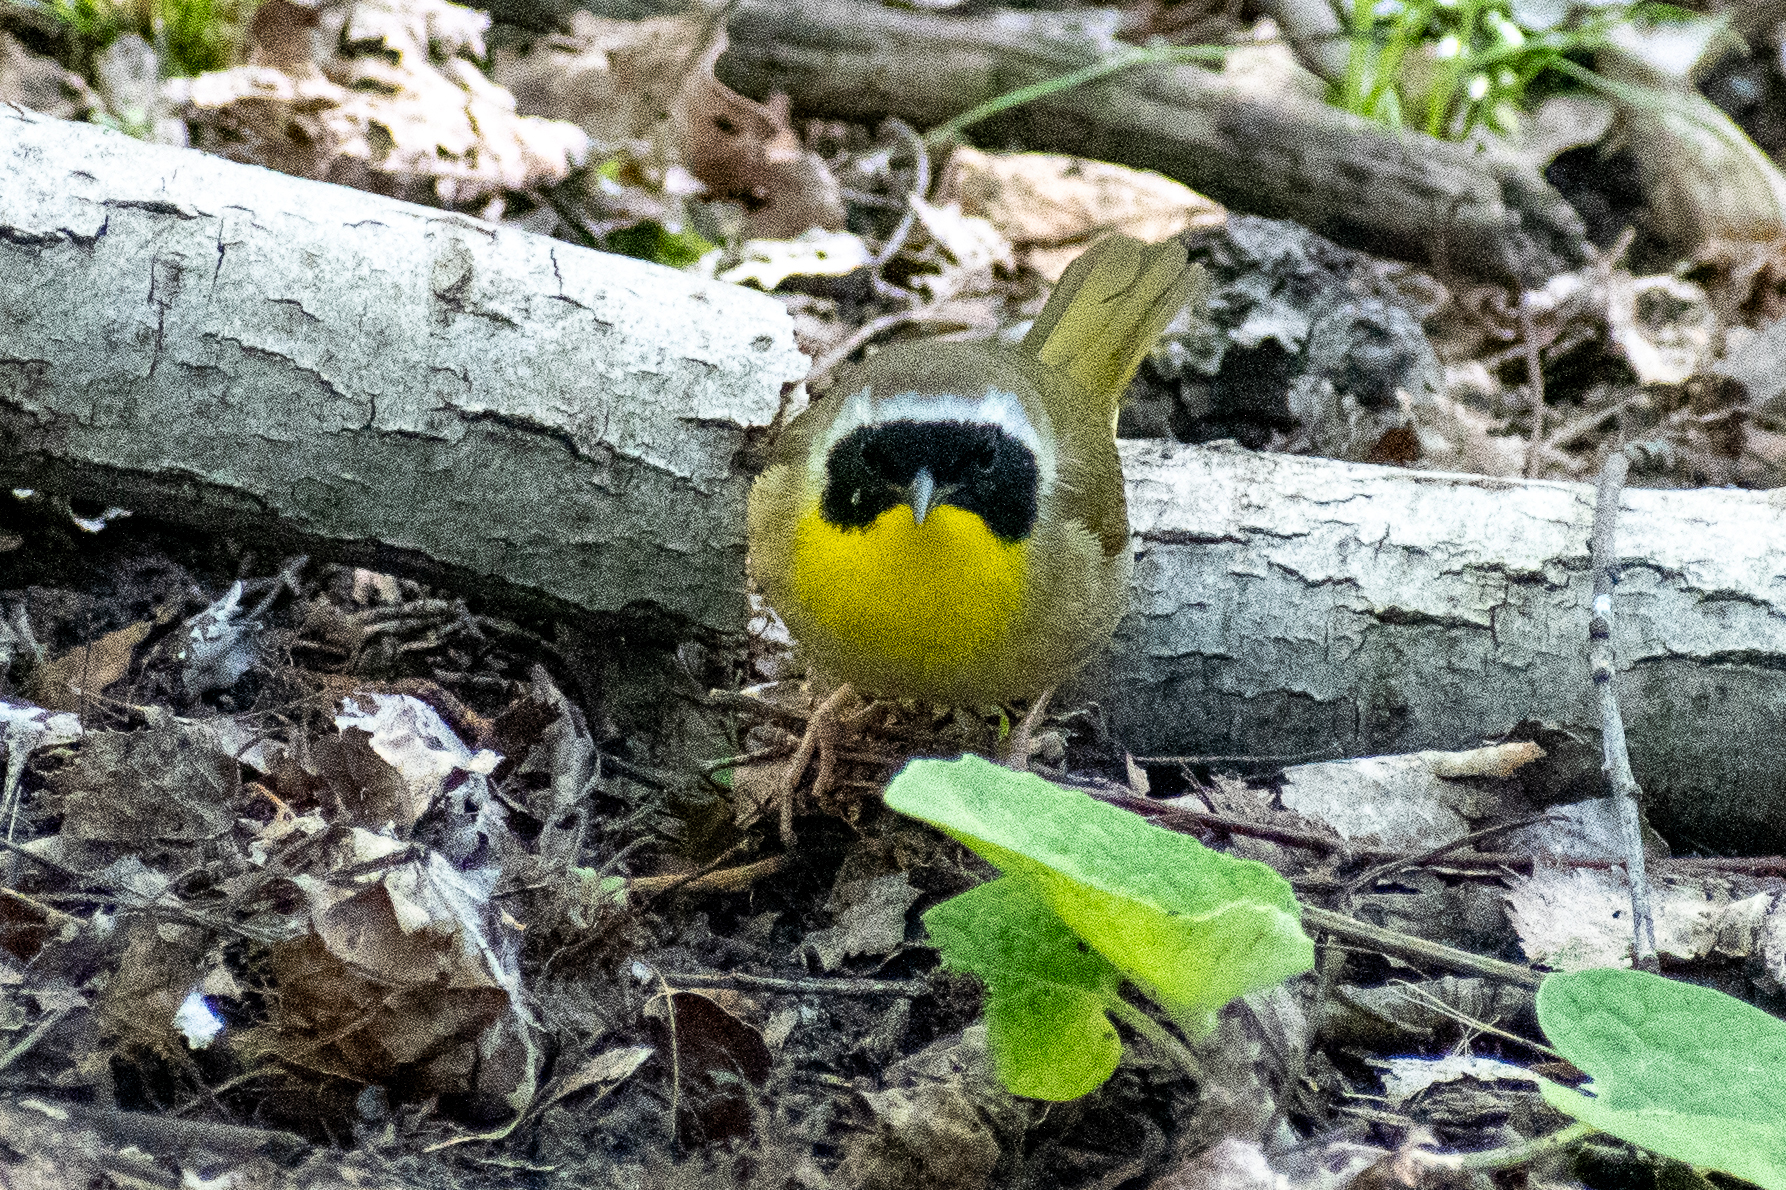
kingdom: Animalia
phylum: Chordata
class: Aves
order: Passeriformes
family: Parulidae
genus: Geothlypis
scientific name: Geothlypis trichas
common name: Common yellowthroat
